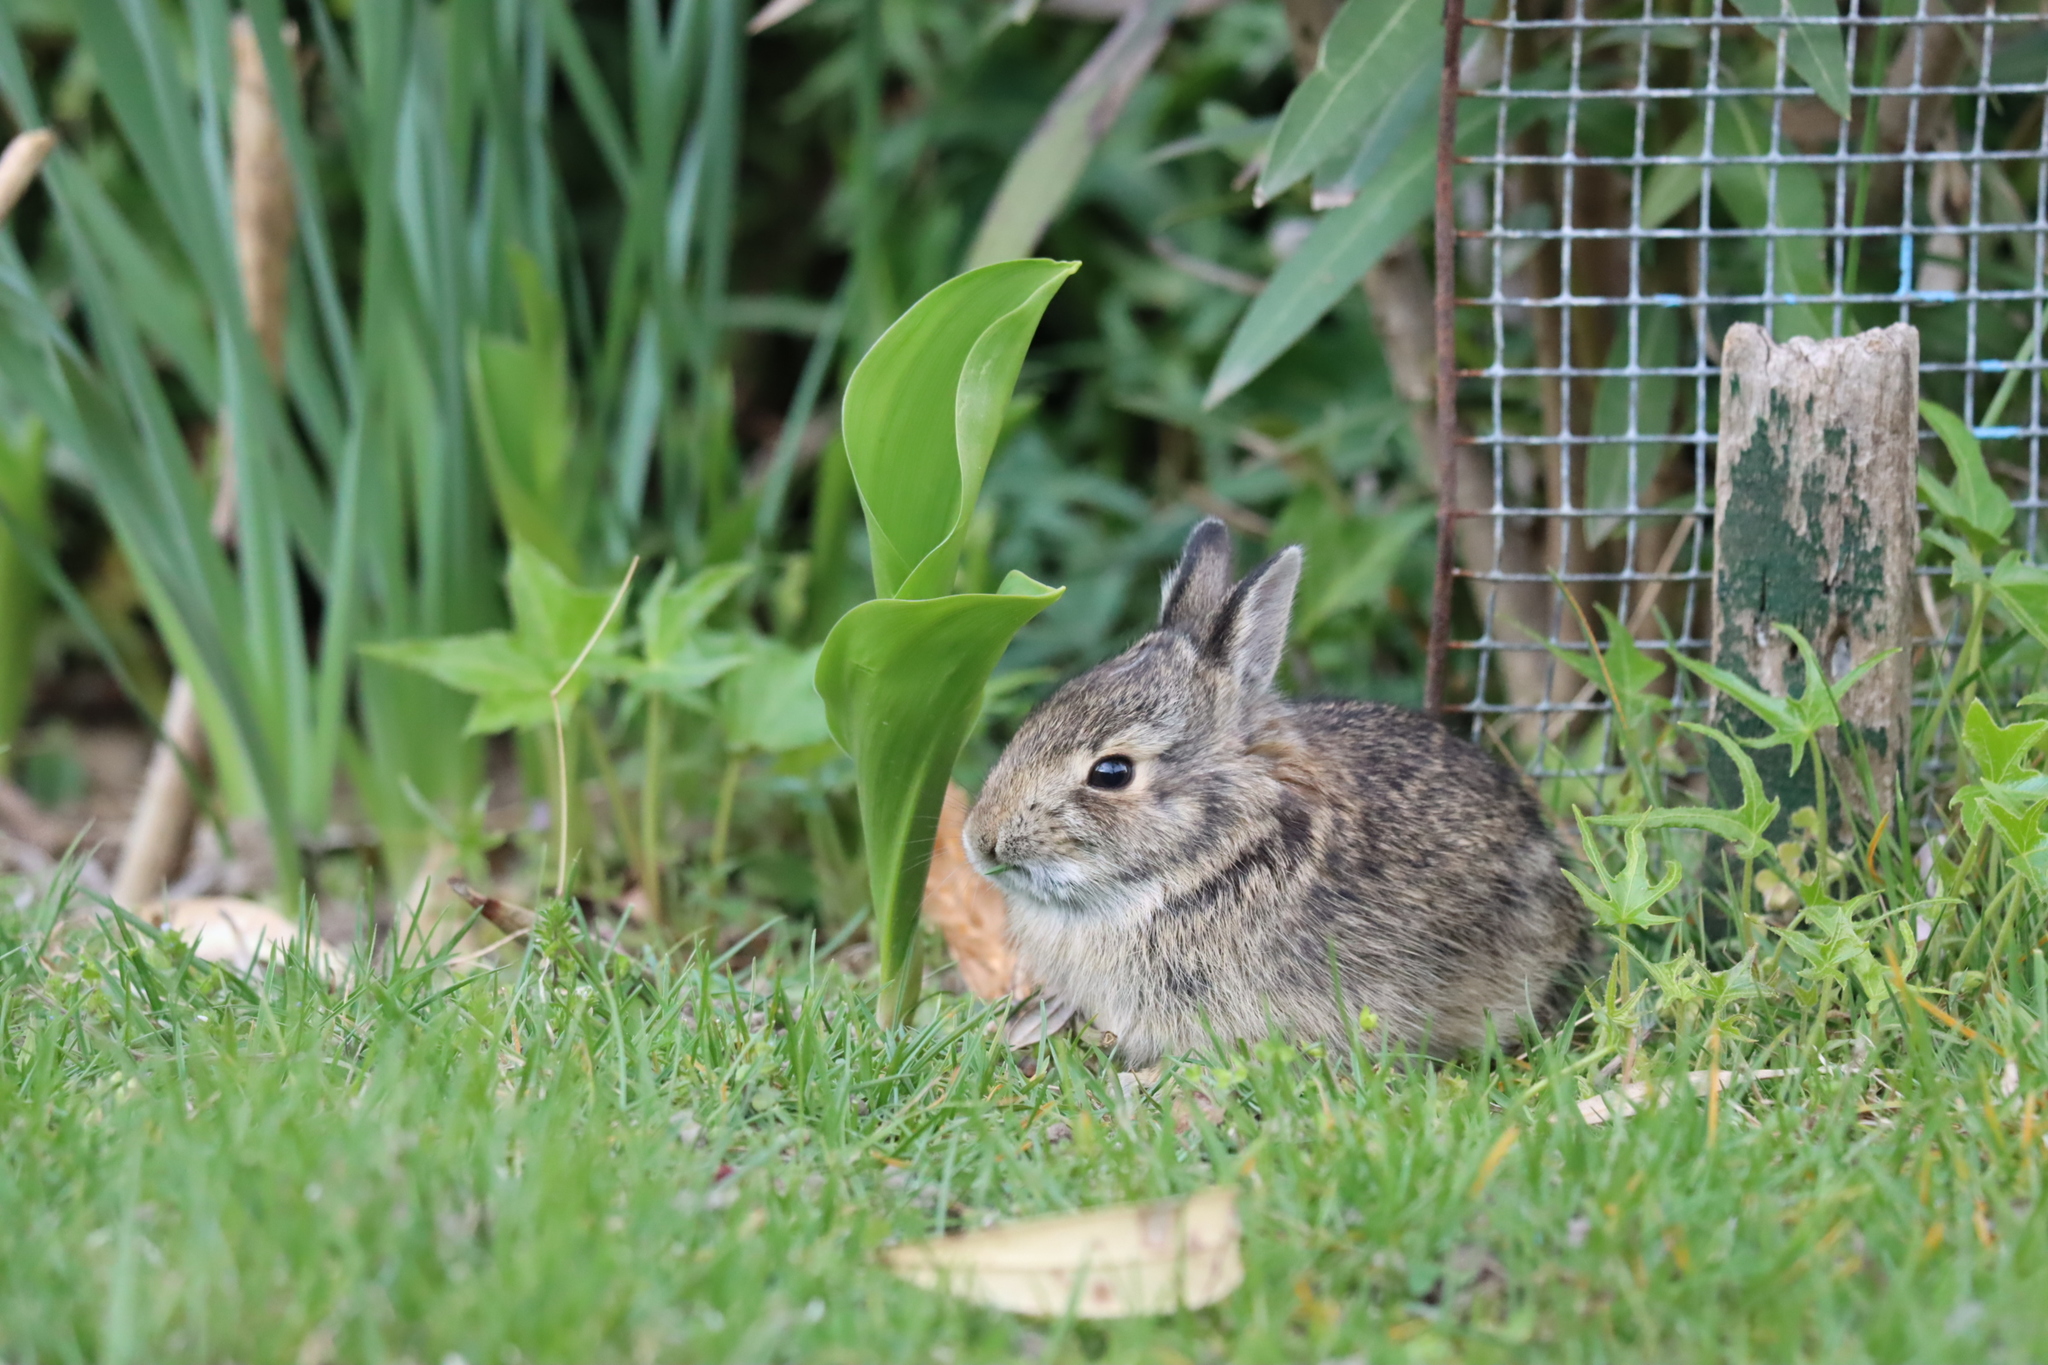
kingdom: Animalia
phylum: Chordata
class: Mammalia
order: Lagomorpha
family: Leporidae
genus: Sylvilagus
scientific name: Sylvilagus floridanus
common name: Eastern cottontail
